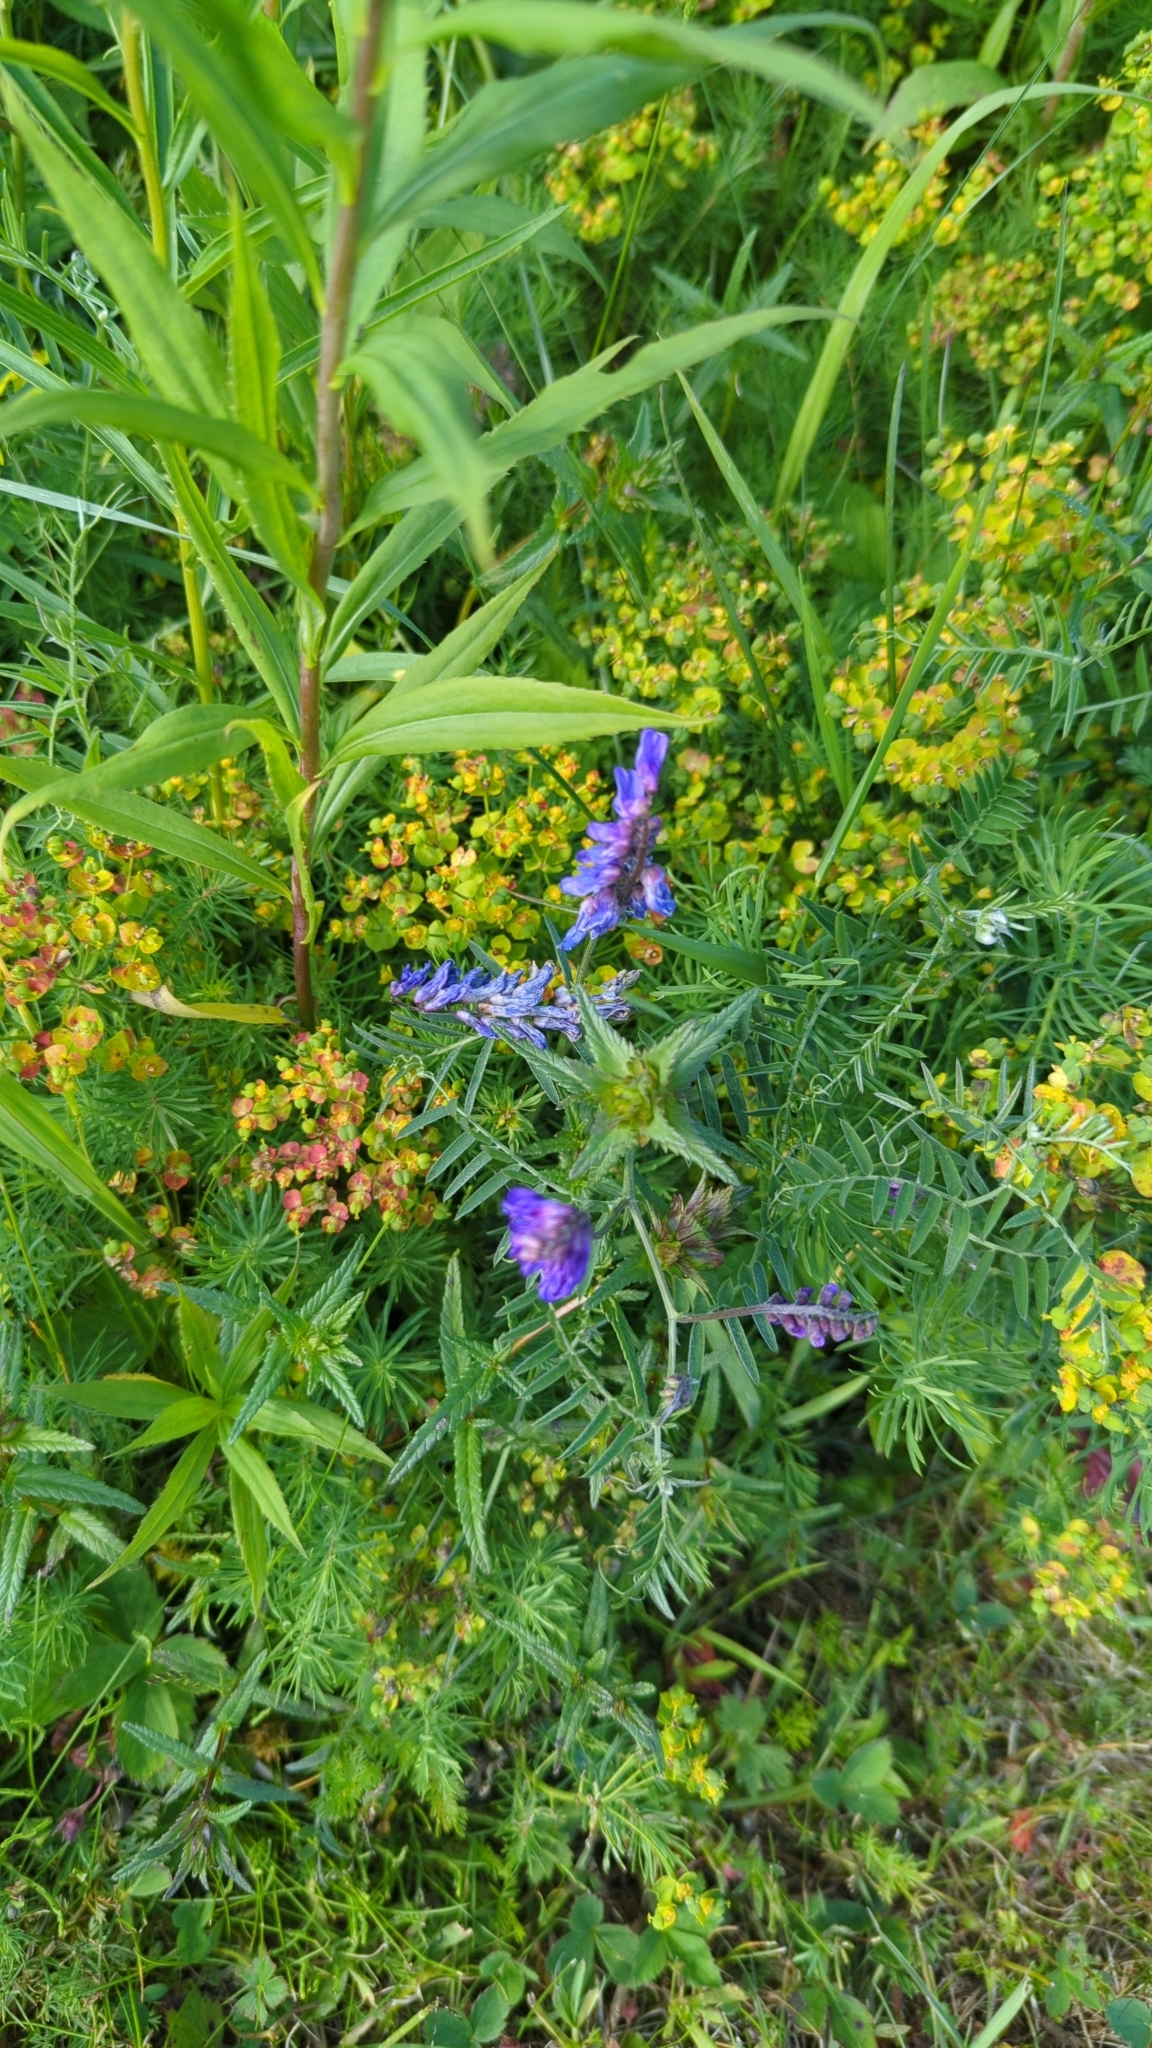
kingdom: Plantae
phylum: Tracheophyta
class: Magnoliopsida
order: Fabales
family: Fabaceae
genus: Vicia
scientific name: Vicia cracca
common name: Bird vetch
